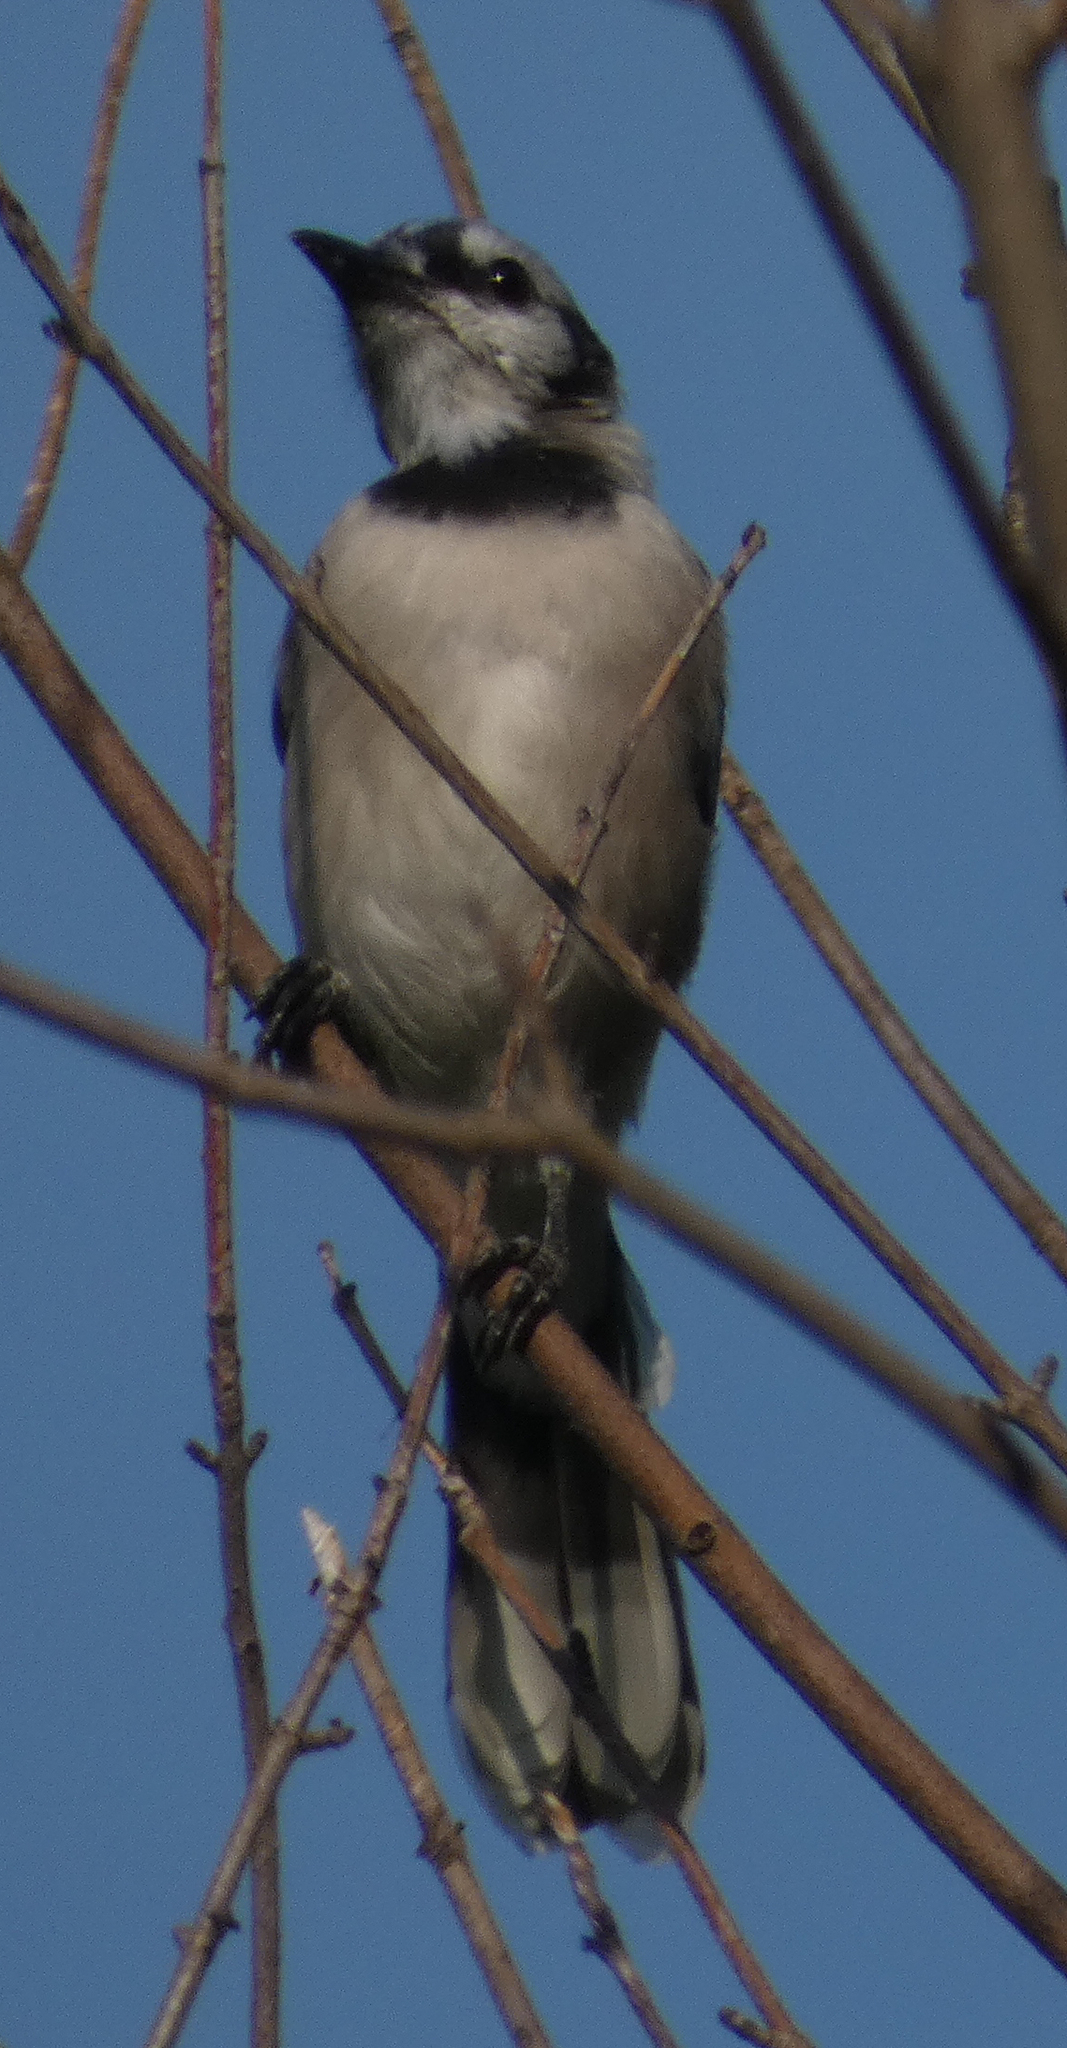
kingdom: Animalia
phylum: Chordata
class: Aves
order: Passeriformes
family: Corvidae
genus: Cyanocitta
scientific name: Cyanocitta cristata
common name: Blue jay
